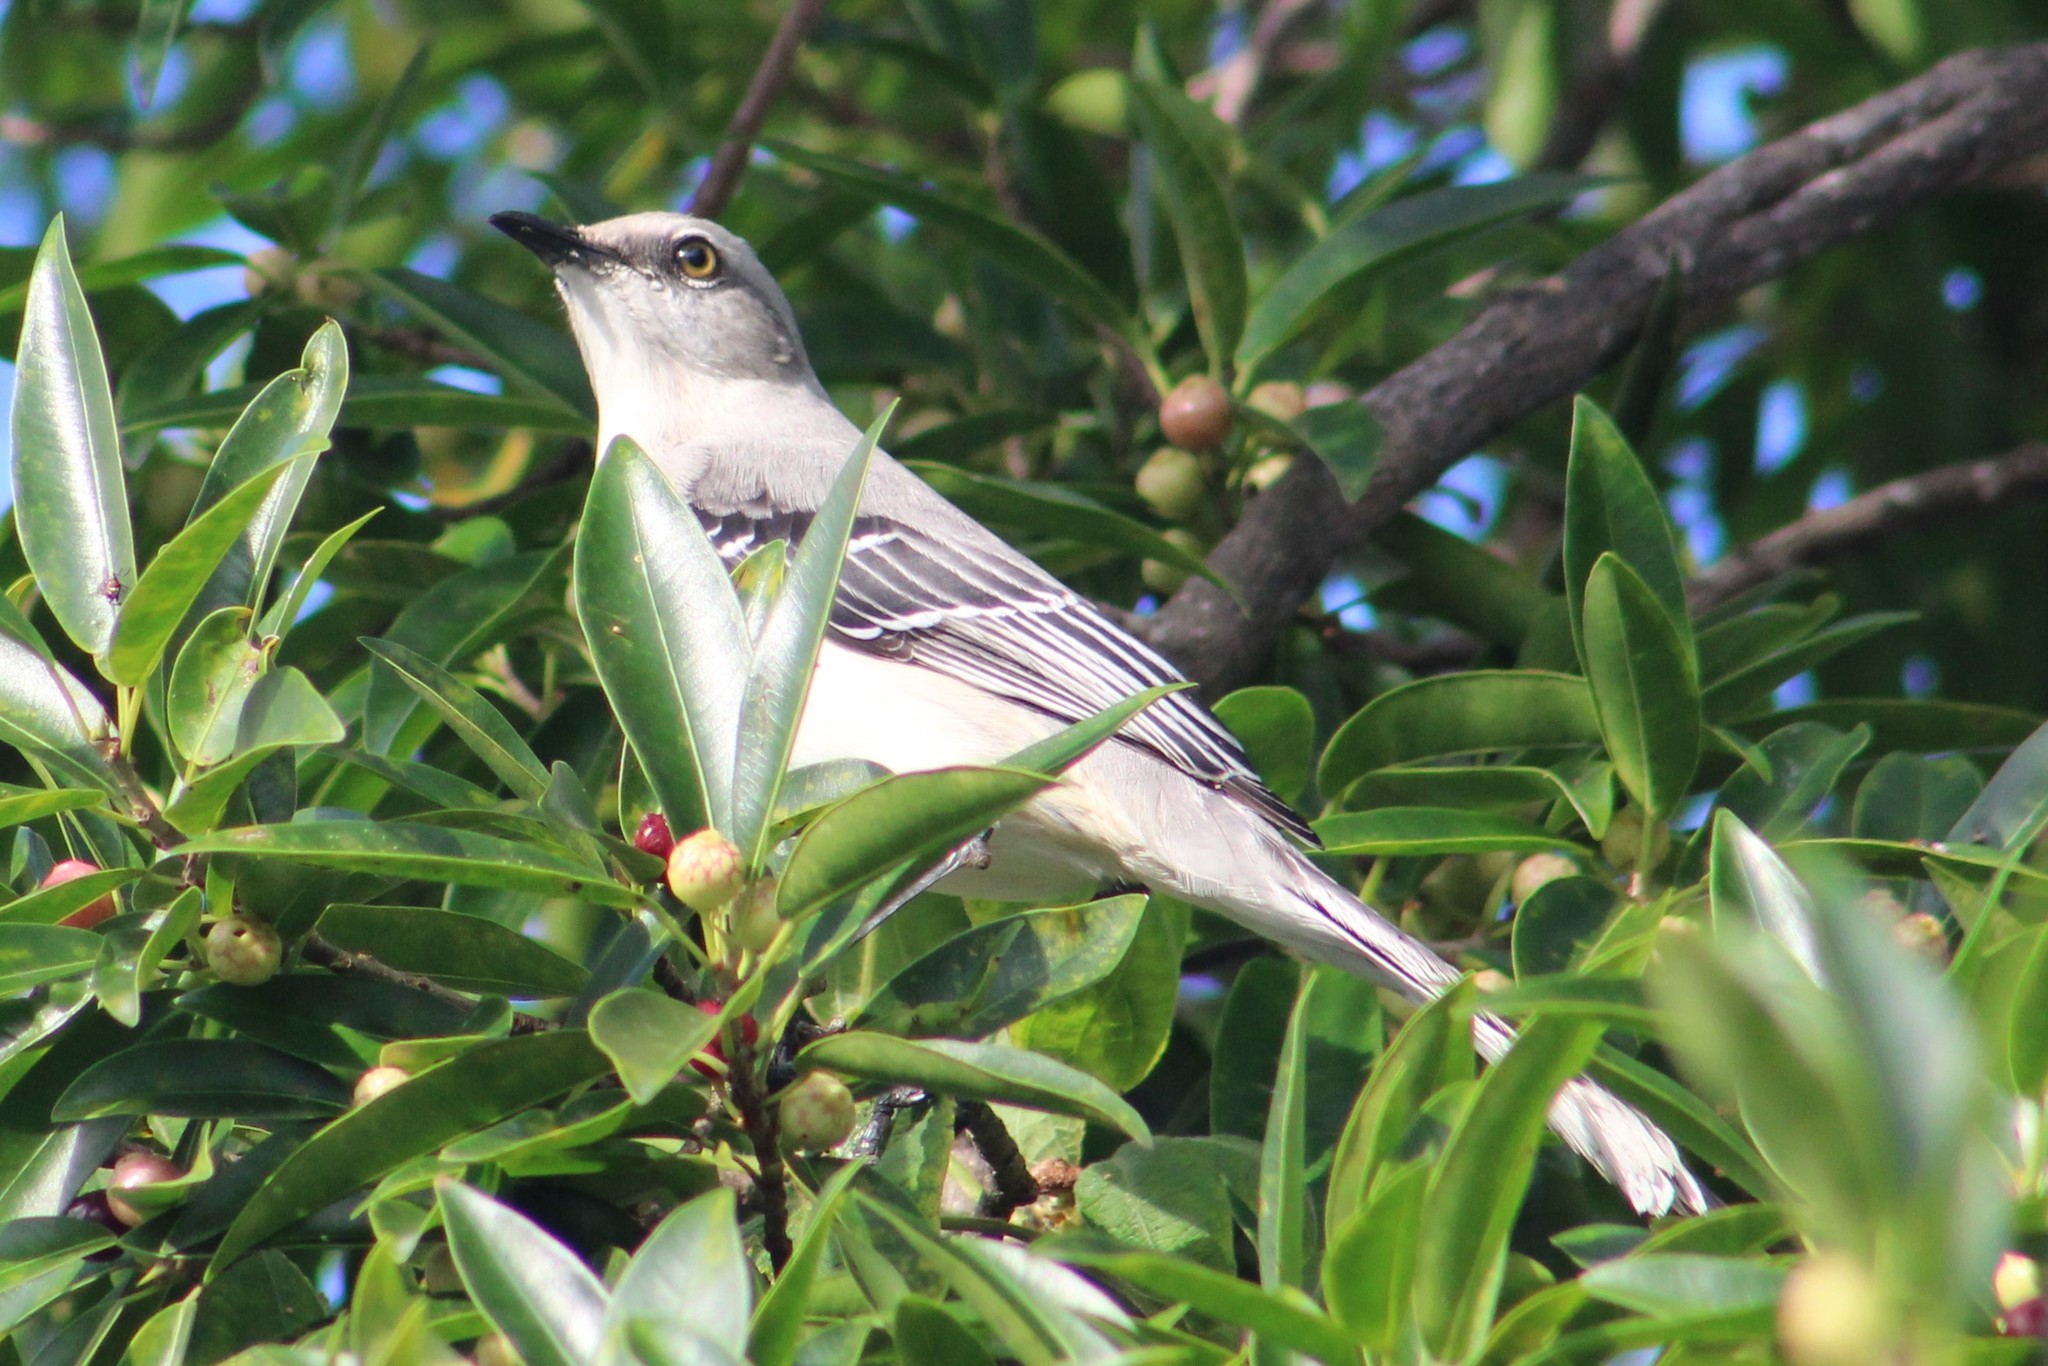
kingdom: Animalia
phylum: Chordata
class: Aves
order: Passeriformes
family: Mimidae
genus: Mimus
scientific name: Mimus gilvus
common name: Tropical mockingbird
